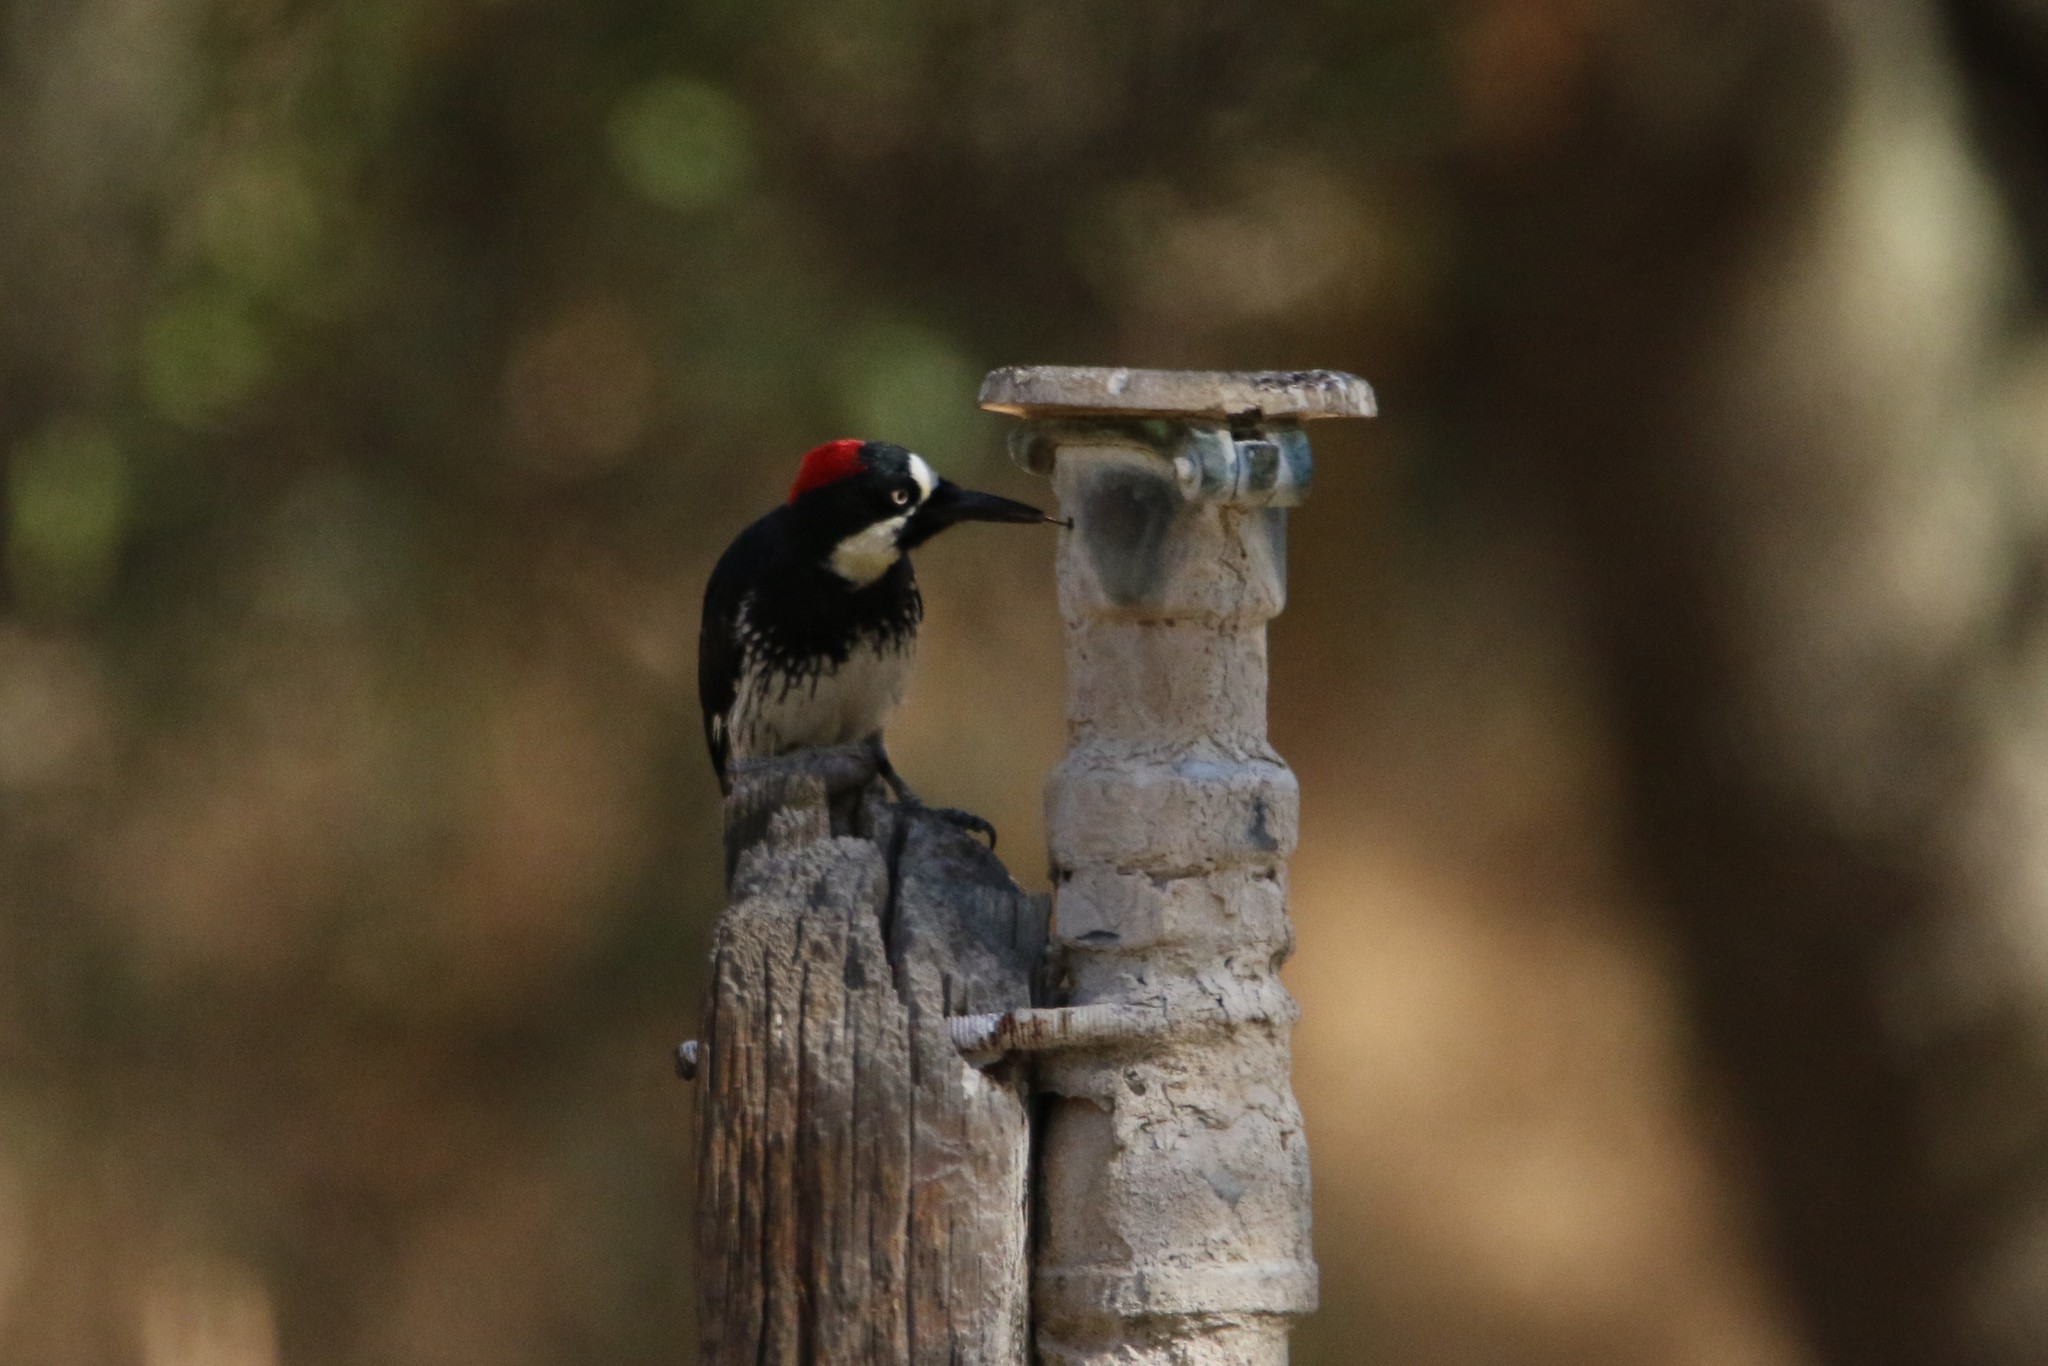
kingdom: Animalia
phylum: Chordata
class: Aves
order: Piciformes
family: Picidae
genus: Melanerpes
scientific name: Melanerpes formicivorus
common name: Acorn woodpecker
